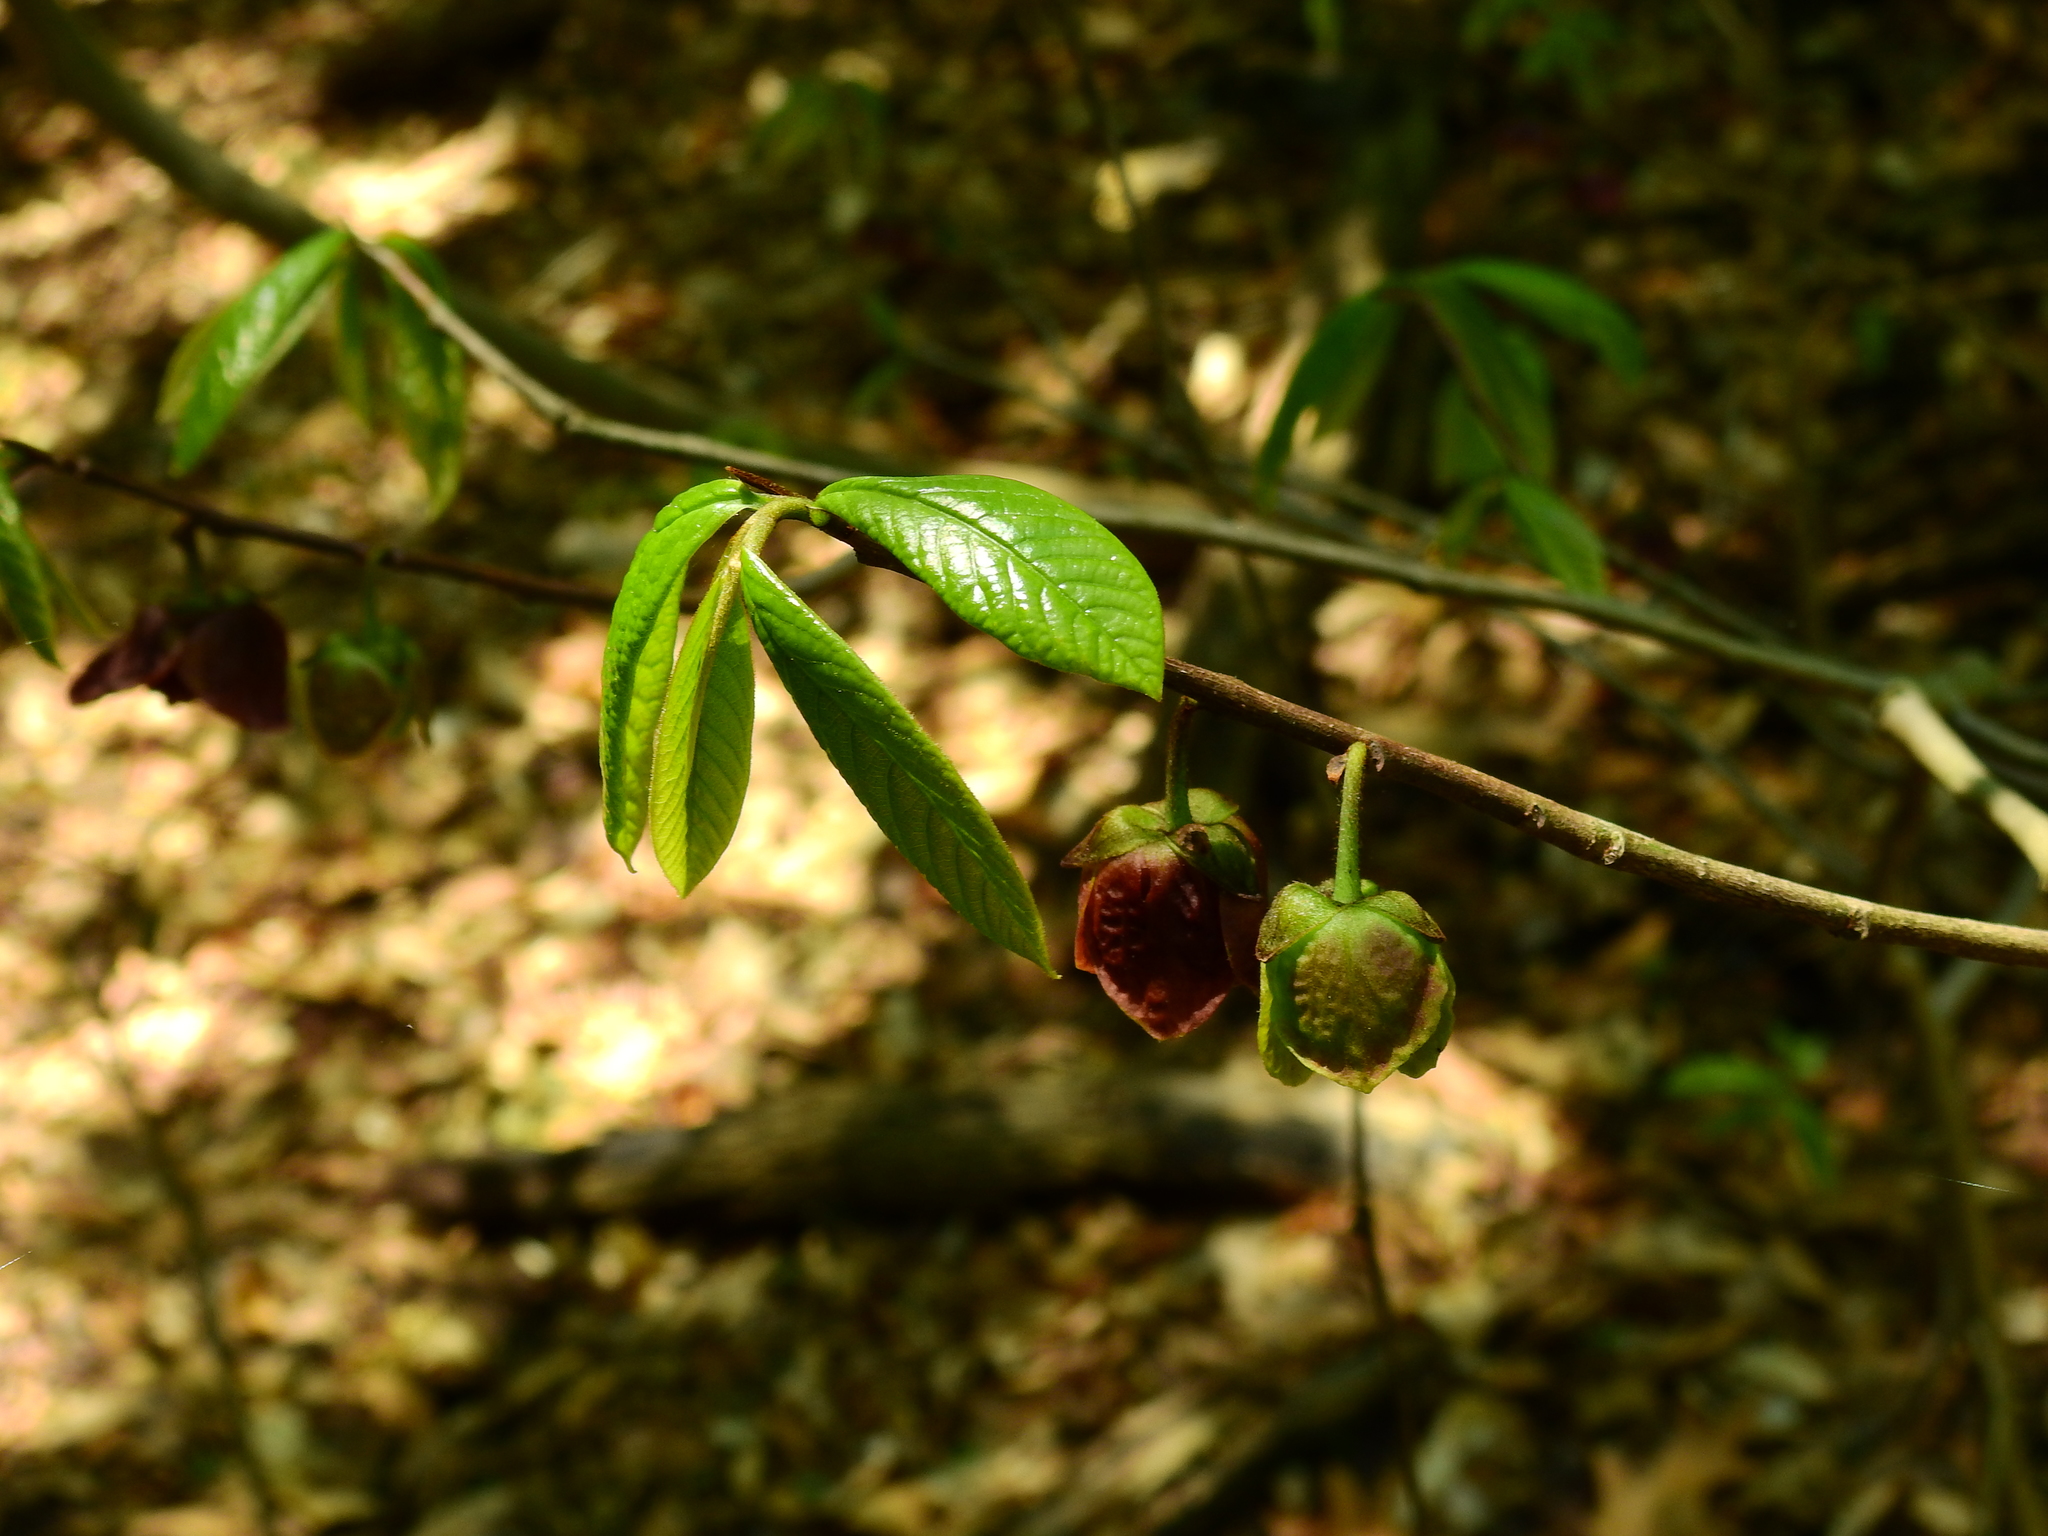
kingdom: Plantae
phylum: Tracheophyta
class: Magnoliopsida
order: Magnoliales
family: Annonaceae
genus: Asimina
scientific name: Asimina triloba
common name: Dog-banana
